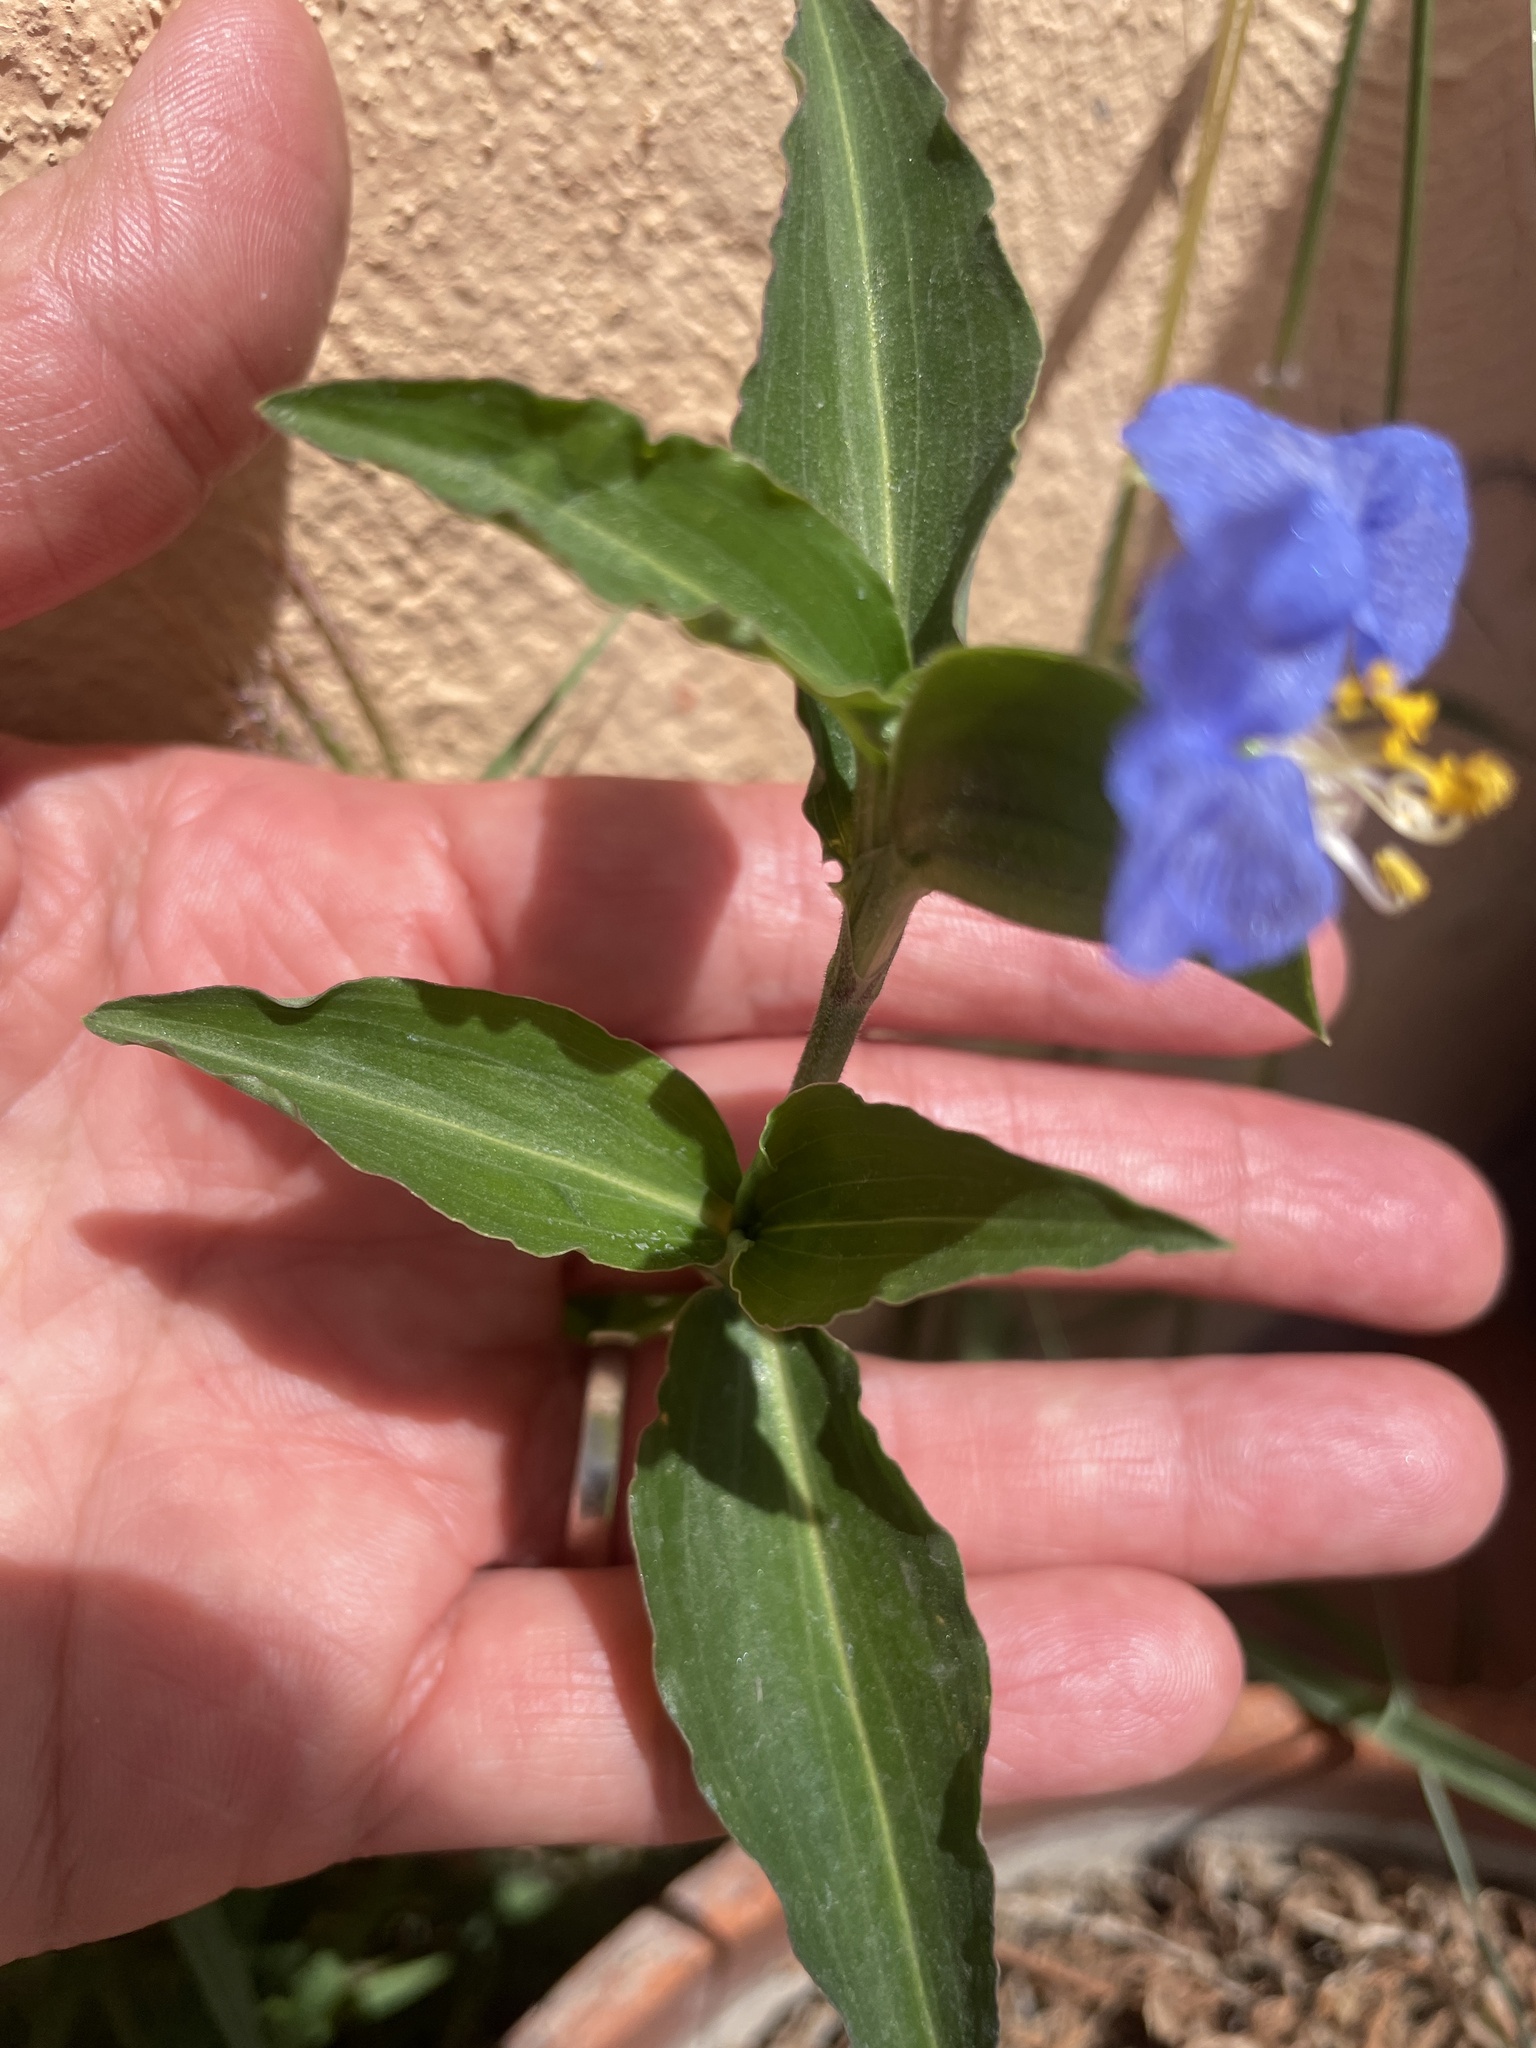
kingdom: Plantae
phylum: Tracheophyta
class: Liliopsida
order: Commelinales
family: Commelinaceae
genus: Commelina
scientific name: Commelina erecta
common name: Blousel blommetjie
